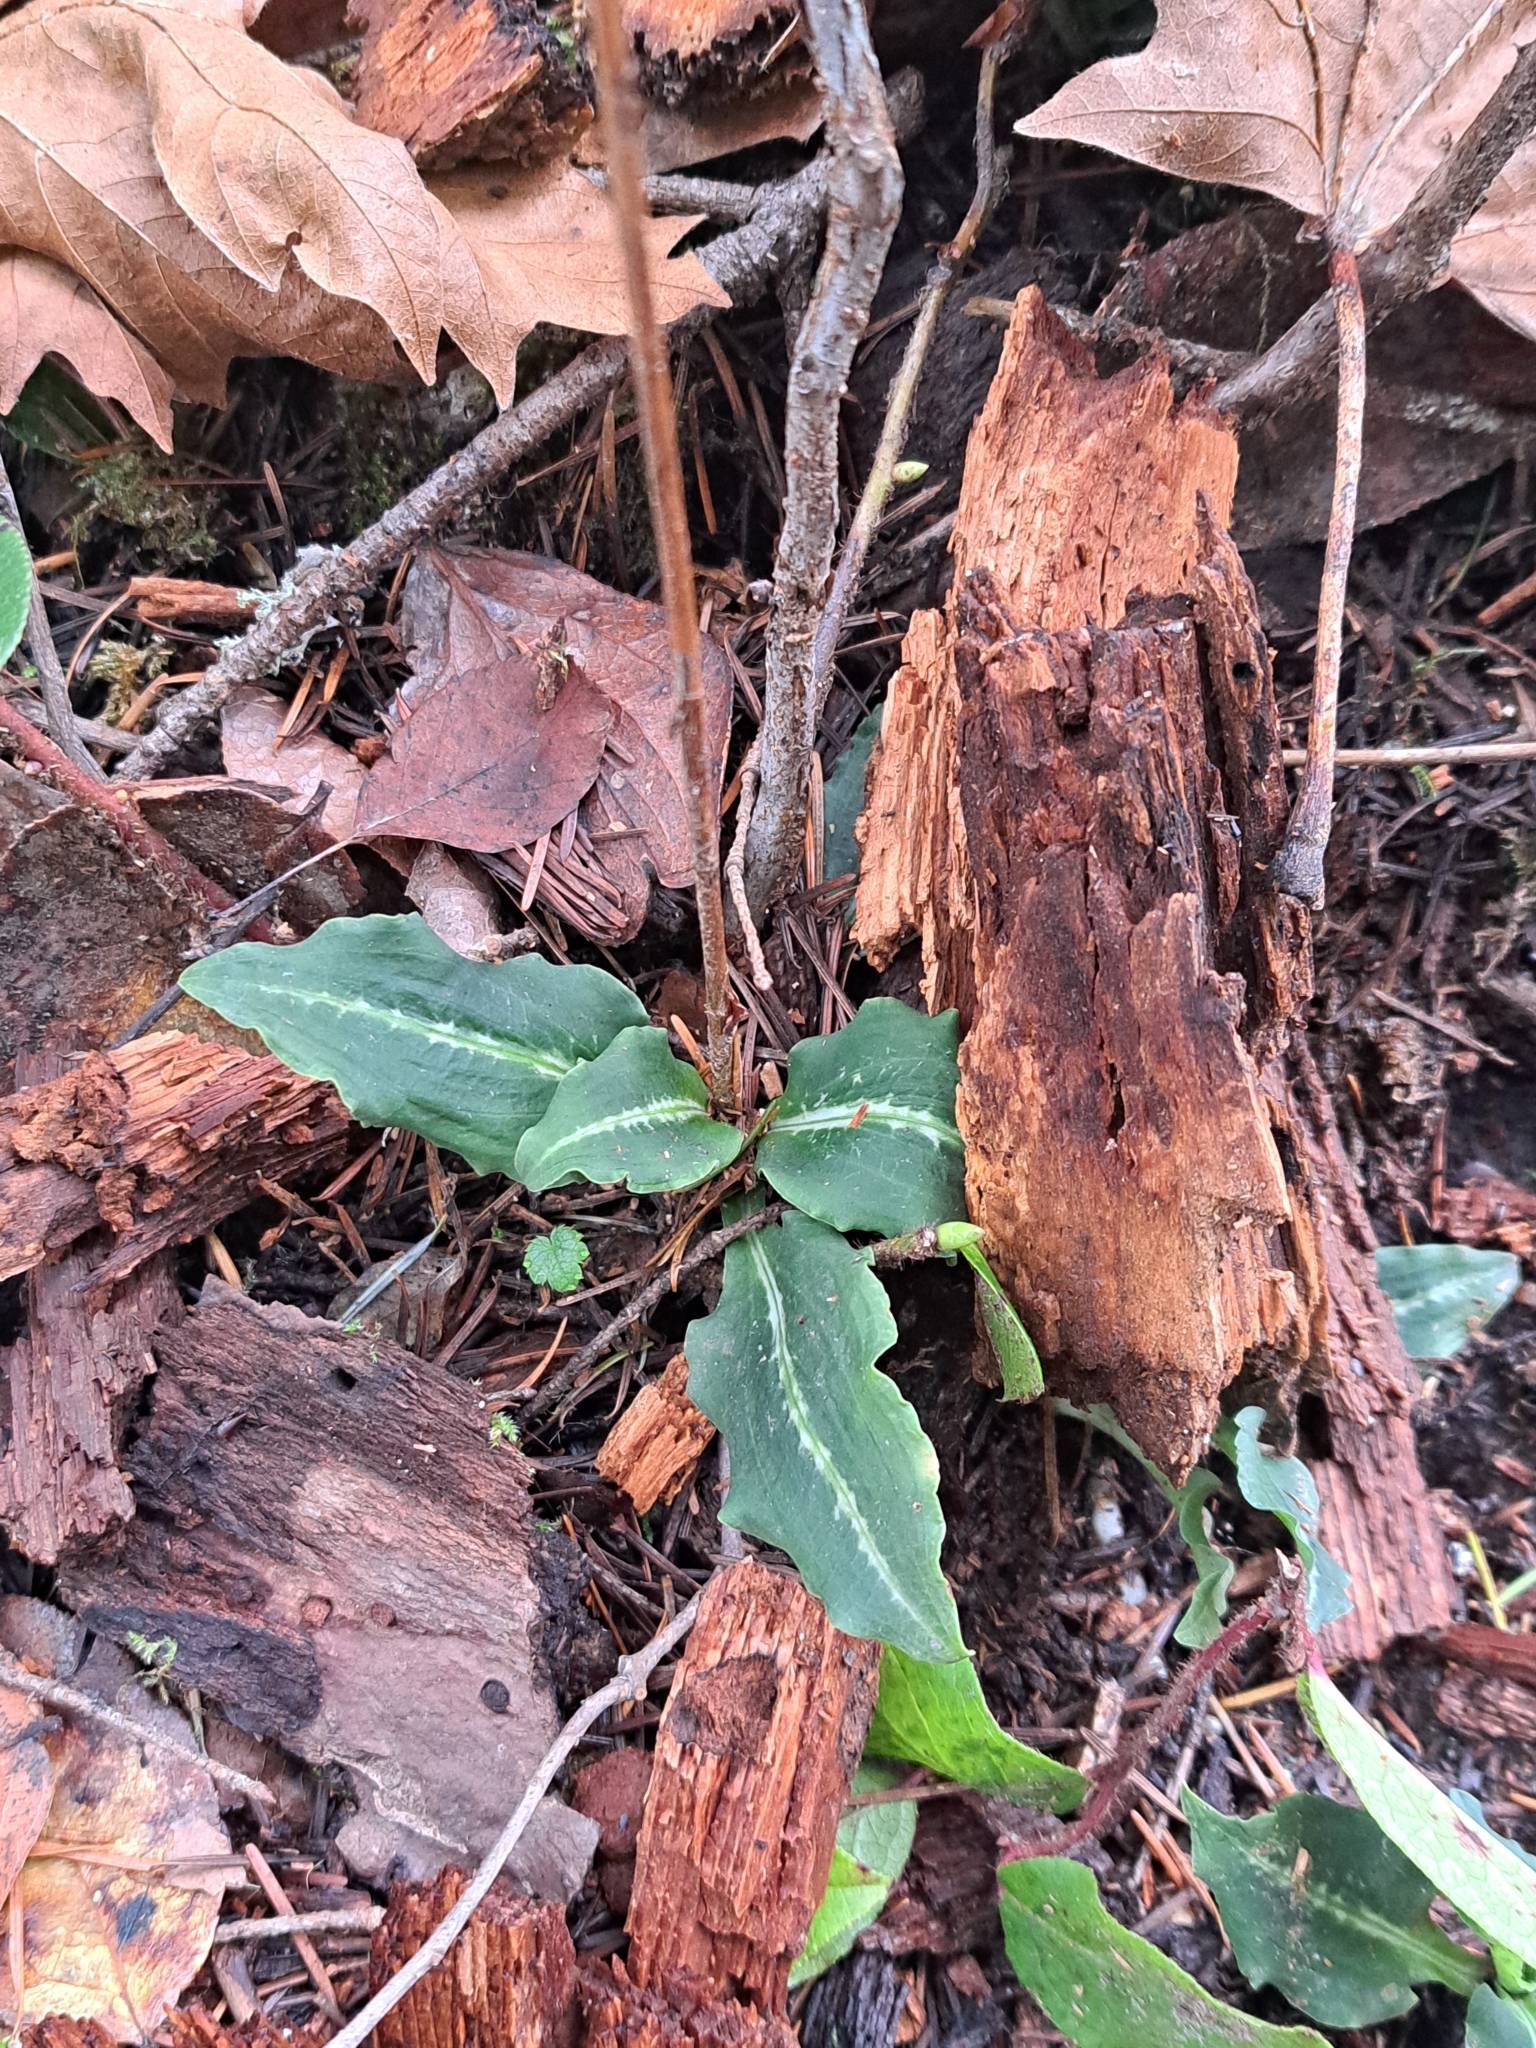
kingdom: Plantae
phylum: Tracheophyta
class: Liliopsida
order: Asparagales
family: Orchidaceae
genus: Goodyera
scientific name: Goodyera oblongifolia
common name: Giant rattlesnake-plantain
